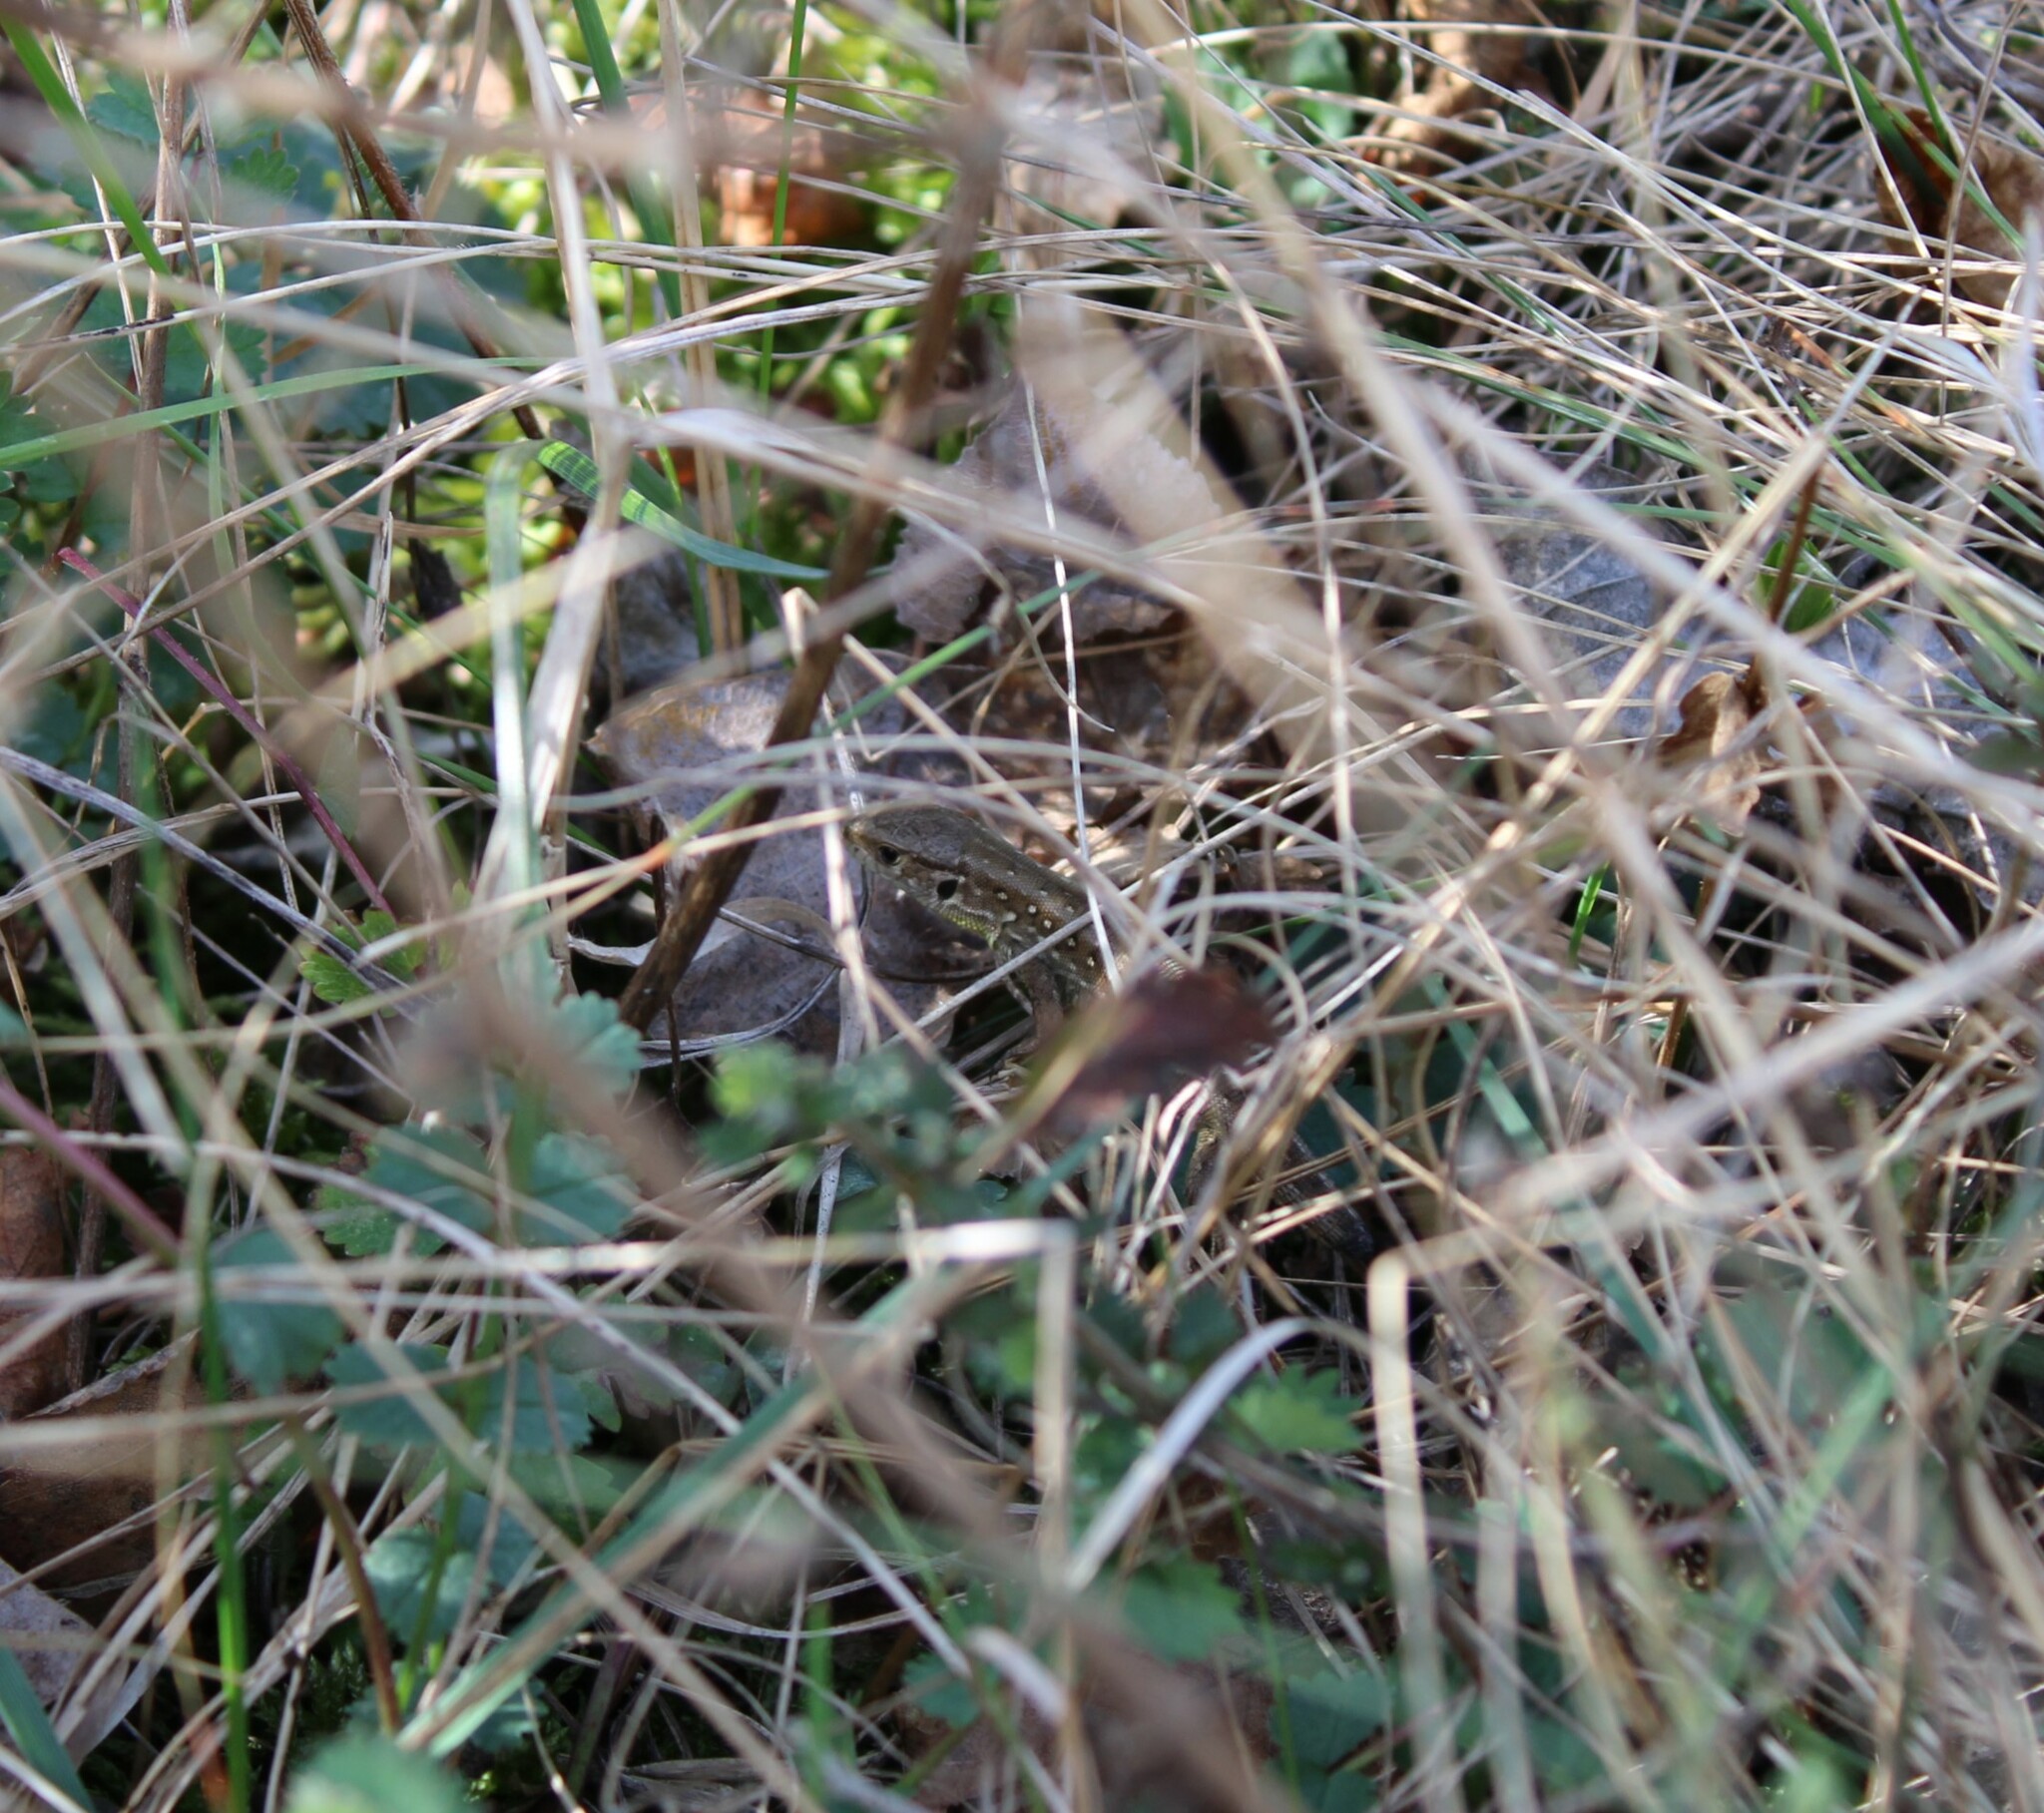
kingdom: Animalia
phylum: Chordata
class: Squamata
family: Lacertidae
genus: Lacerta
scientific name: Lacerta agilis
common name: Sand lizard
